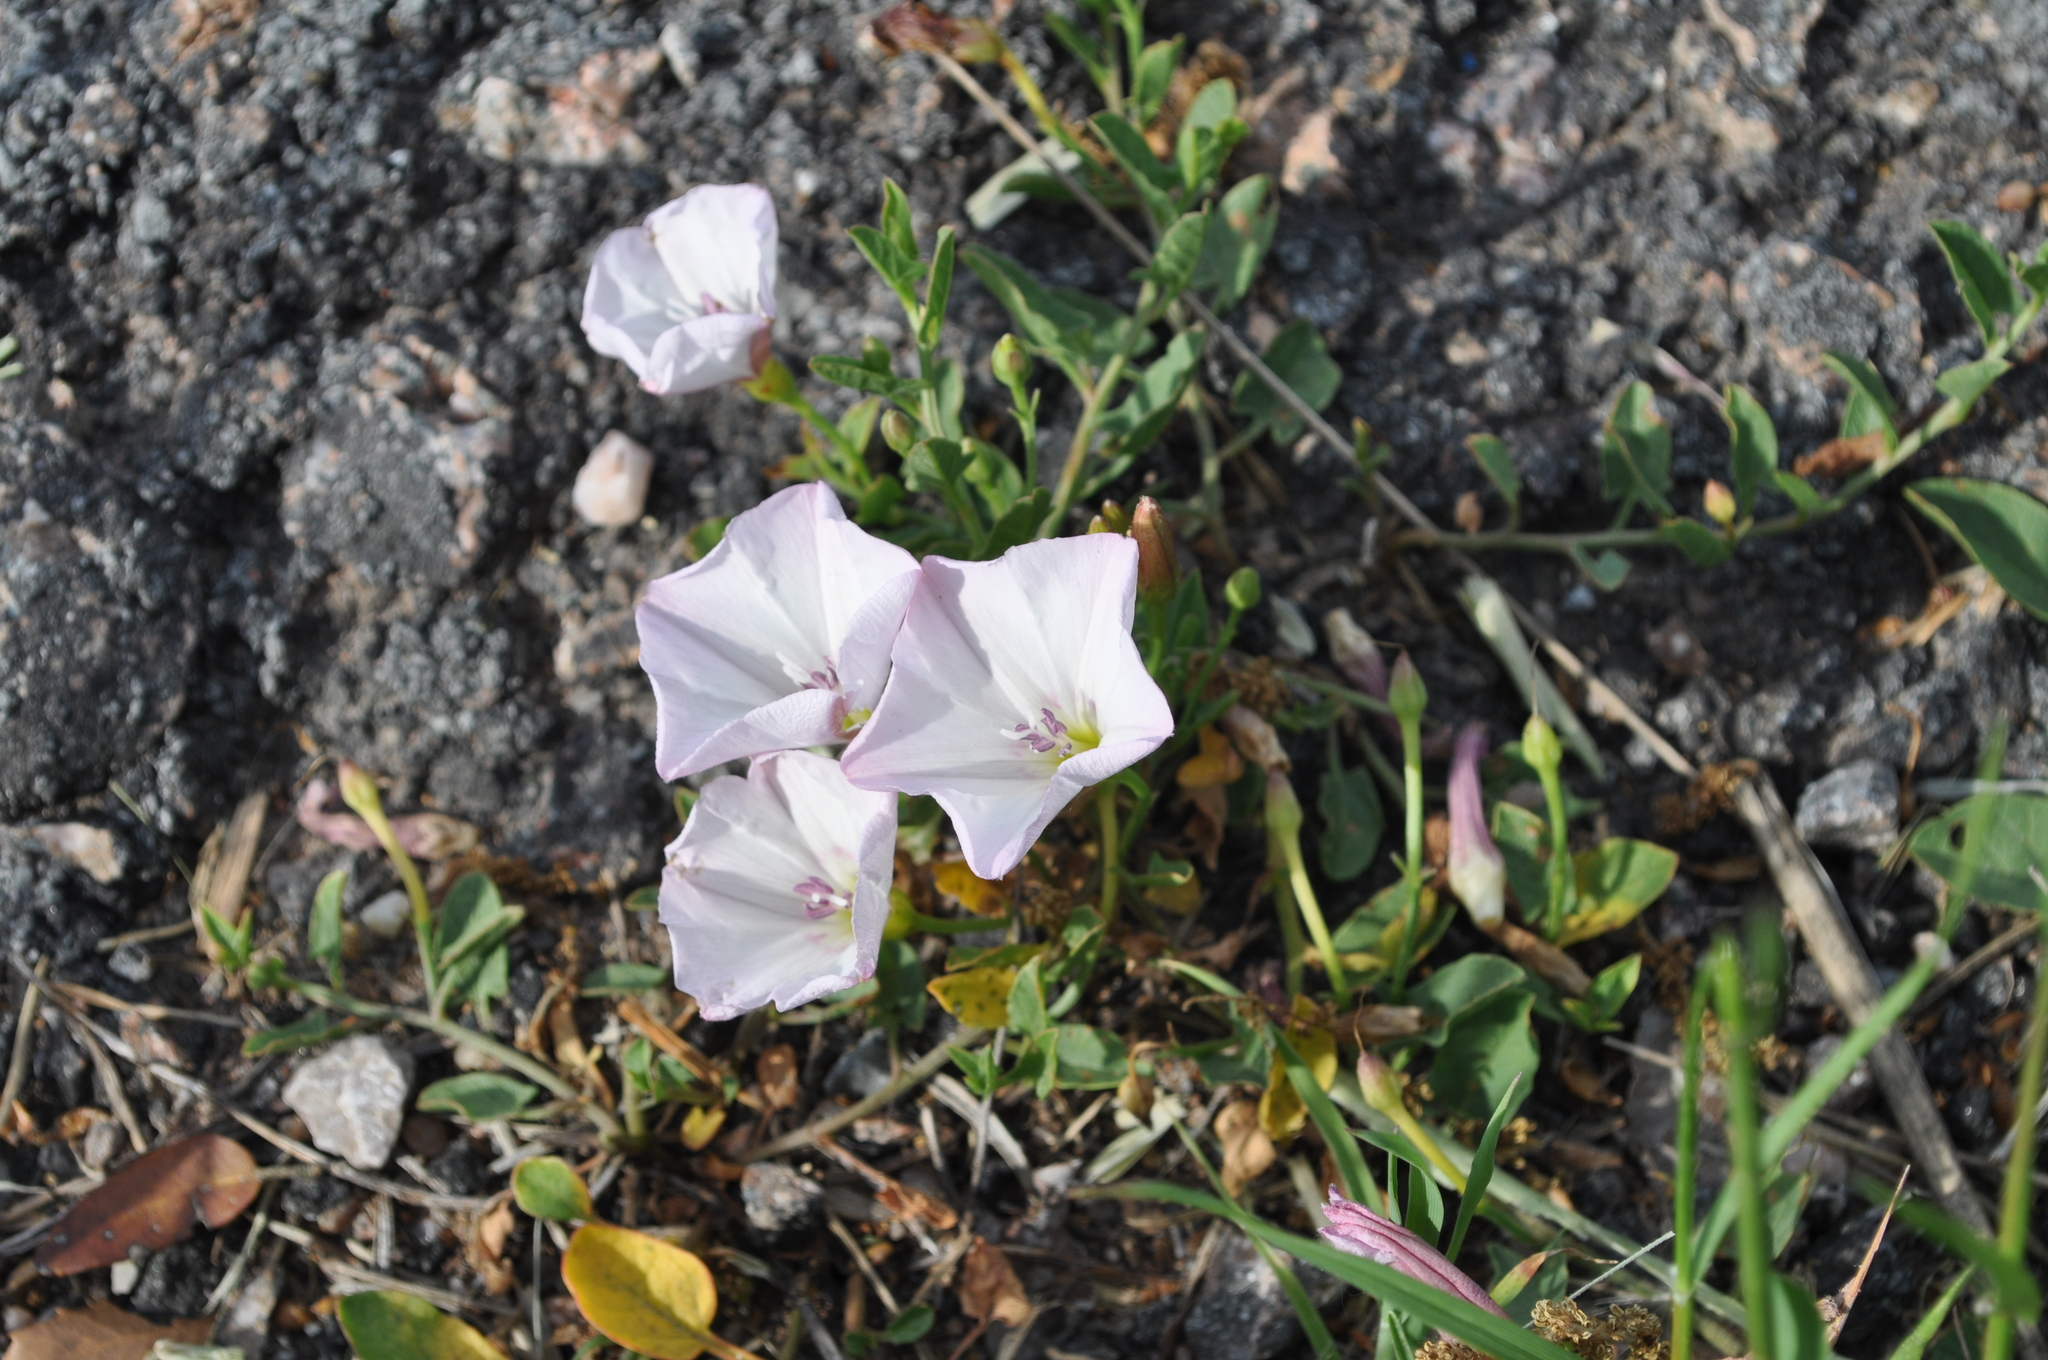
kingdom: Plantae
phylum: Tracheophyta
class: Magnoliopsida
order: Solanales
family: Convolvulaceae
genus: Convolvulus
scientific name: Convolvulus arvensis
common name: Field bindweed
